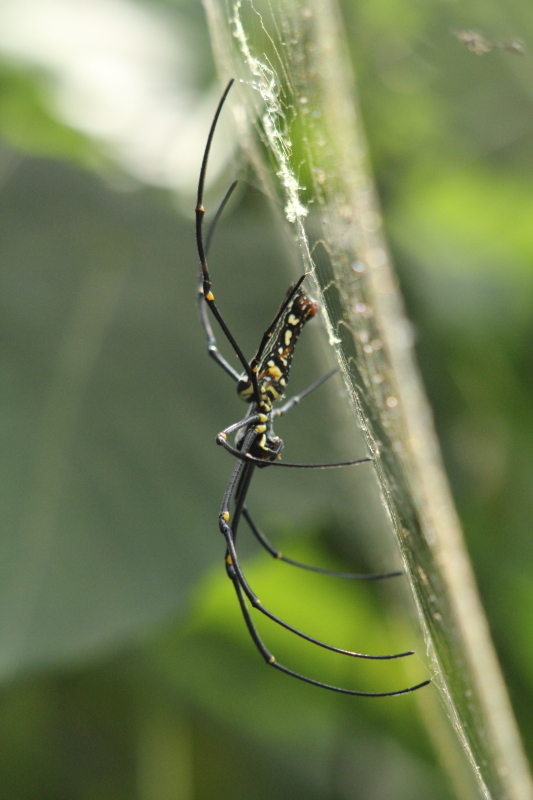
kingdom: Animalia
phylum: Arthropoda
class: Arachnida
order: Araneae
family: Araneidae
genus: Nephila
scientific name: Nephila pilipes
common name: Giant golden orb weaver
